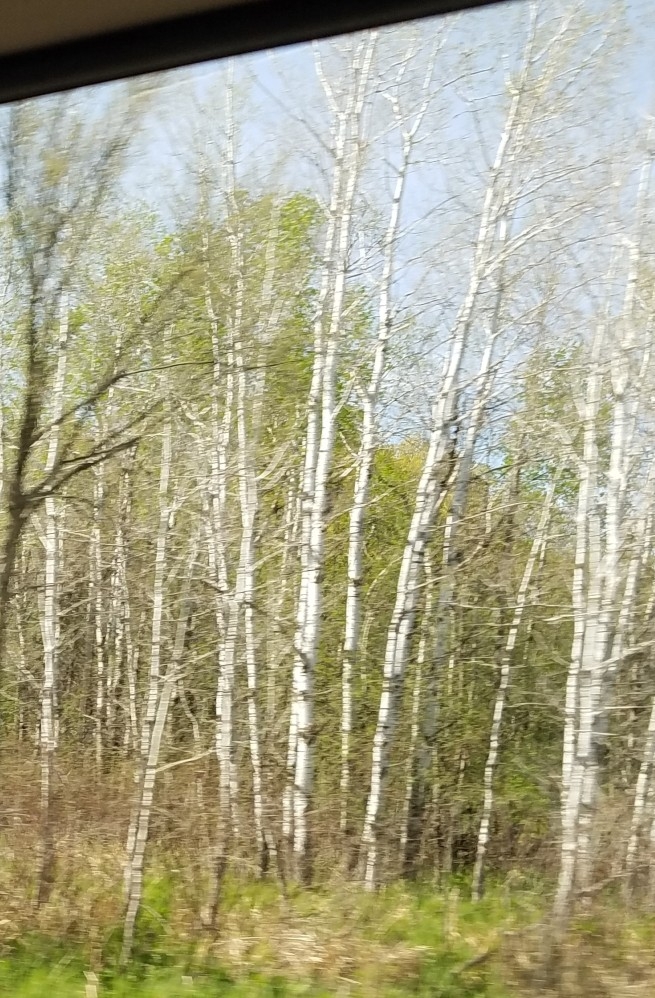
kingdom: Plantae
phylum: Tracheophyta
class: Magnoliopsida
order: Malpighiales
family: Salicaceae
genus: Populus
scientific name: Populus tremuloides
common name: Quaking aspen
